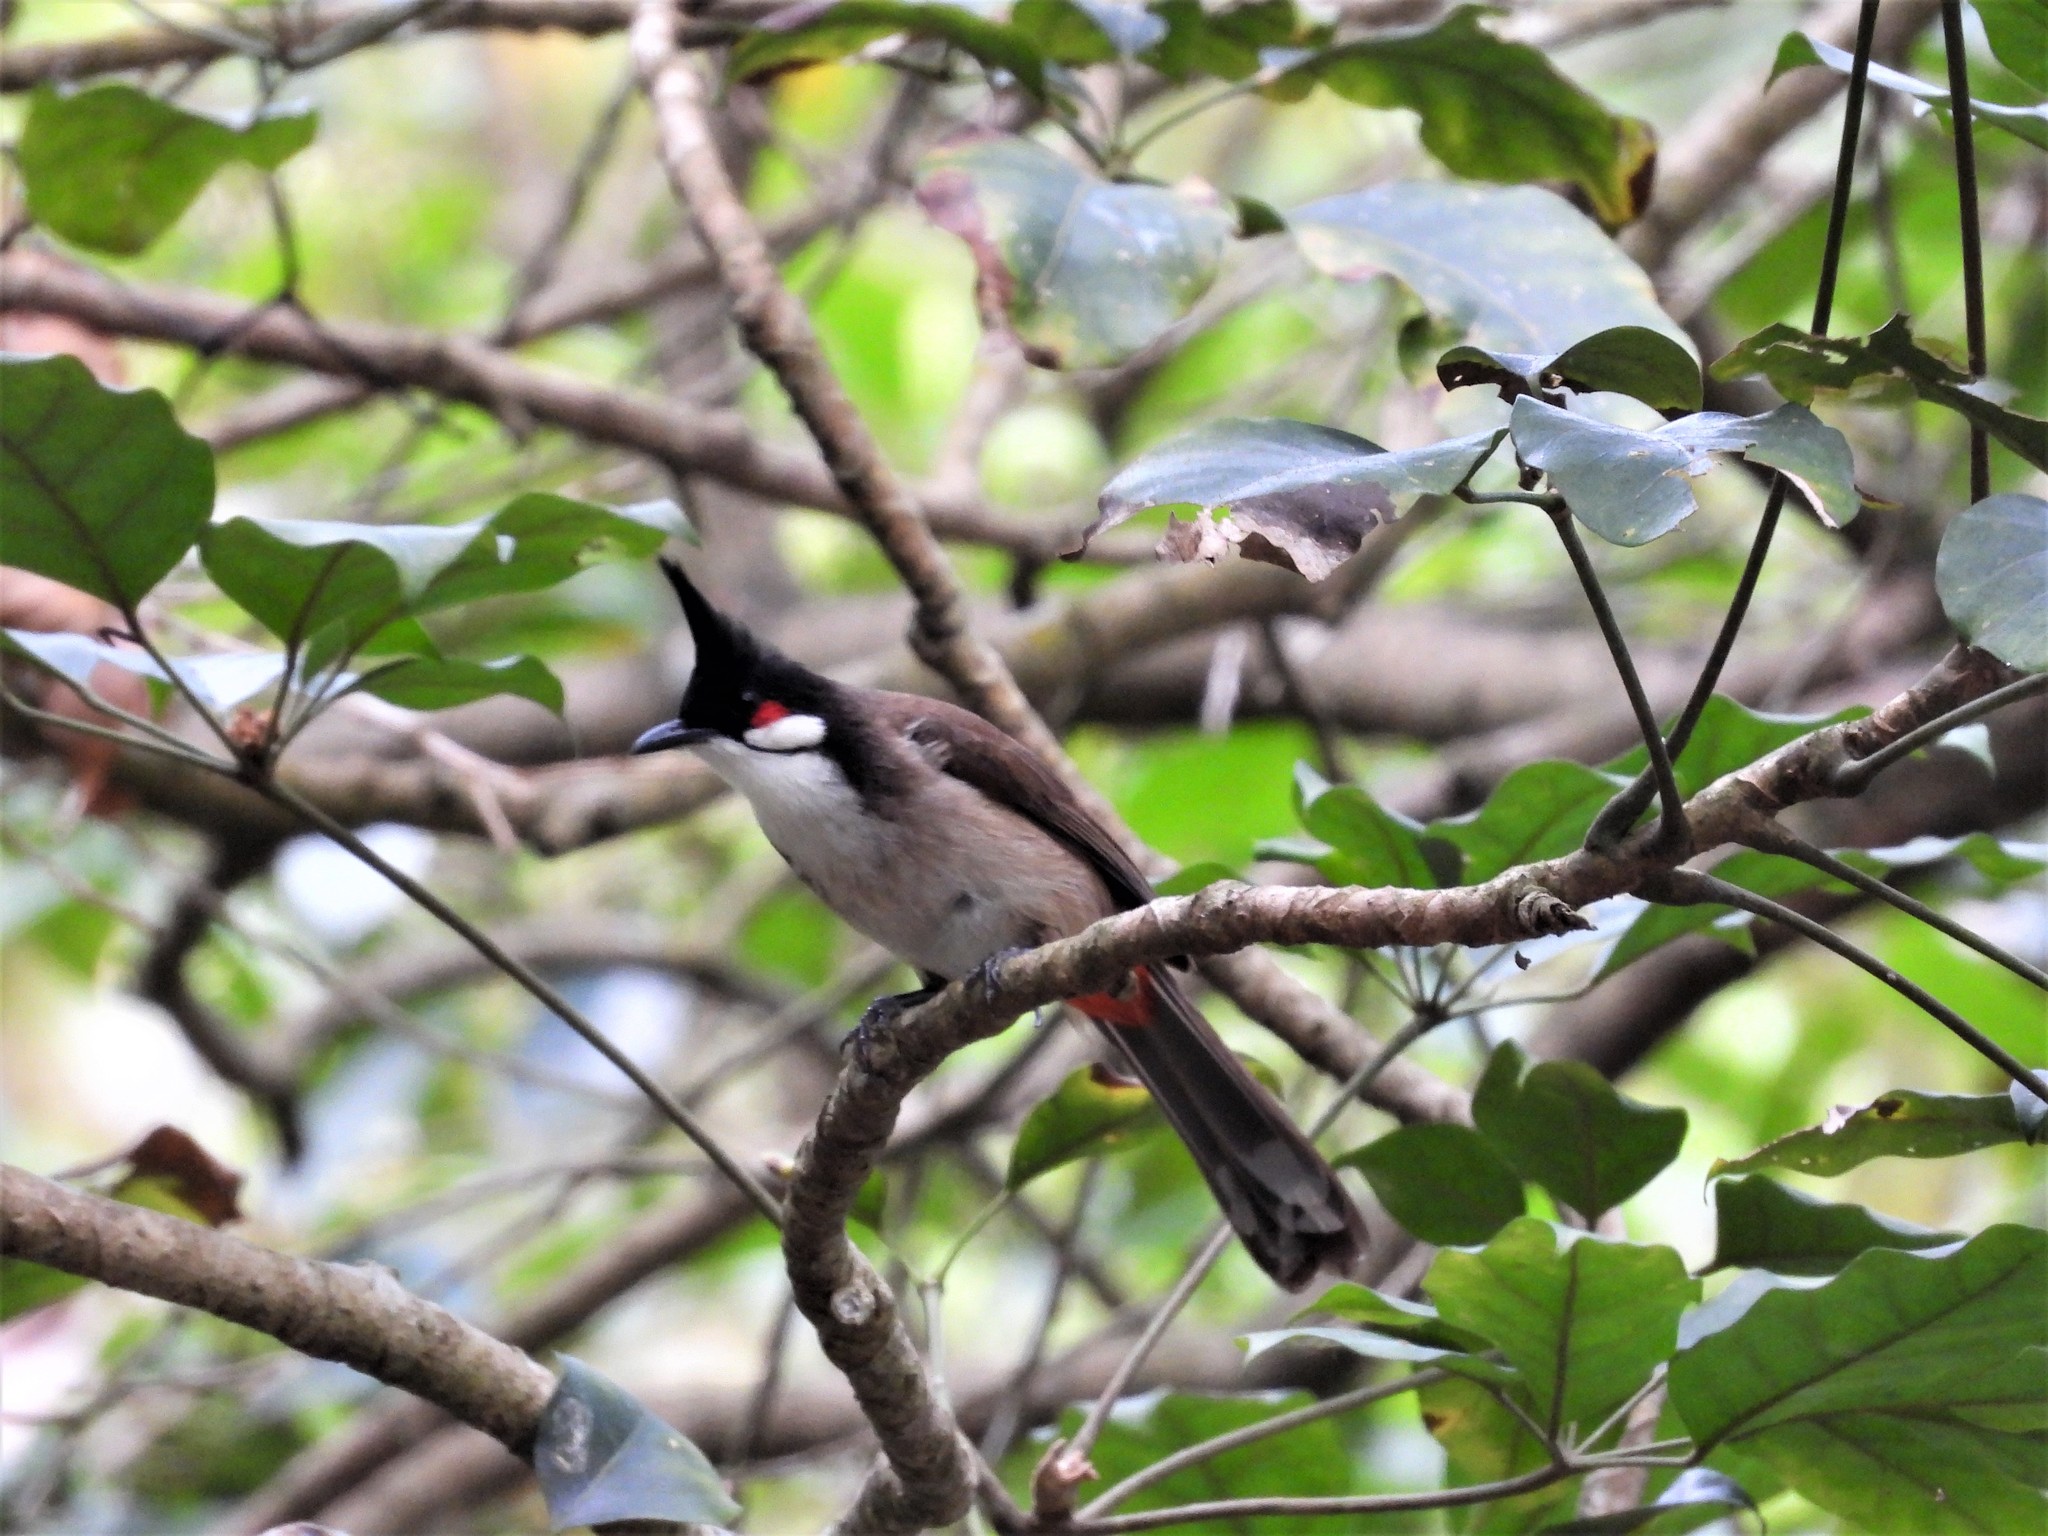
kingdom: Animalia
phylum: Chordata
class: Aves
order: Passeriformes
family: Pycnonotidae
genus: Pycnonotus
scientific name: Pycnonotus jocosus
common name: Red-whiskered bulbul
